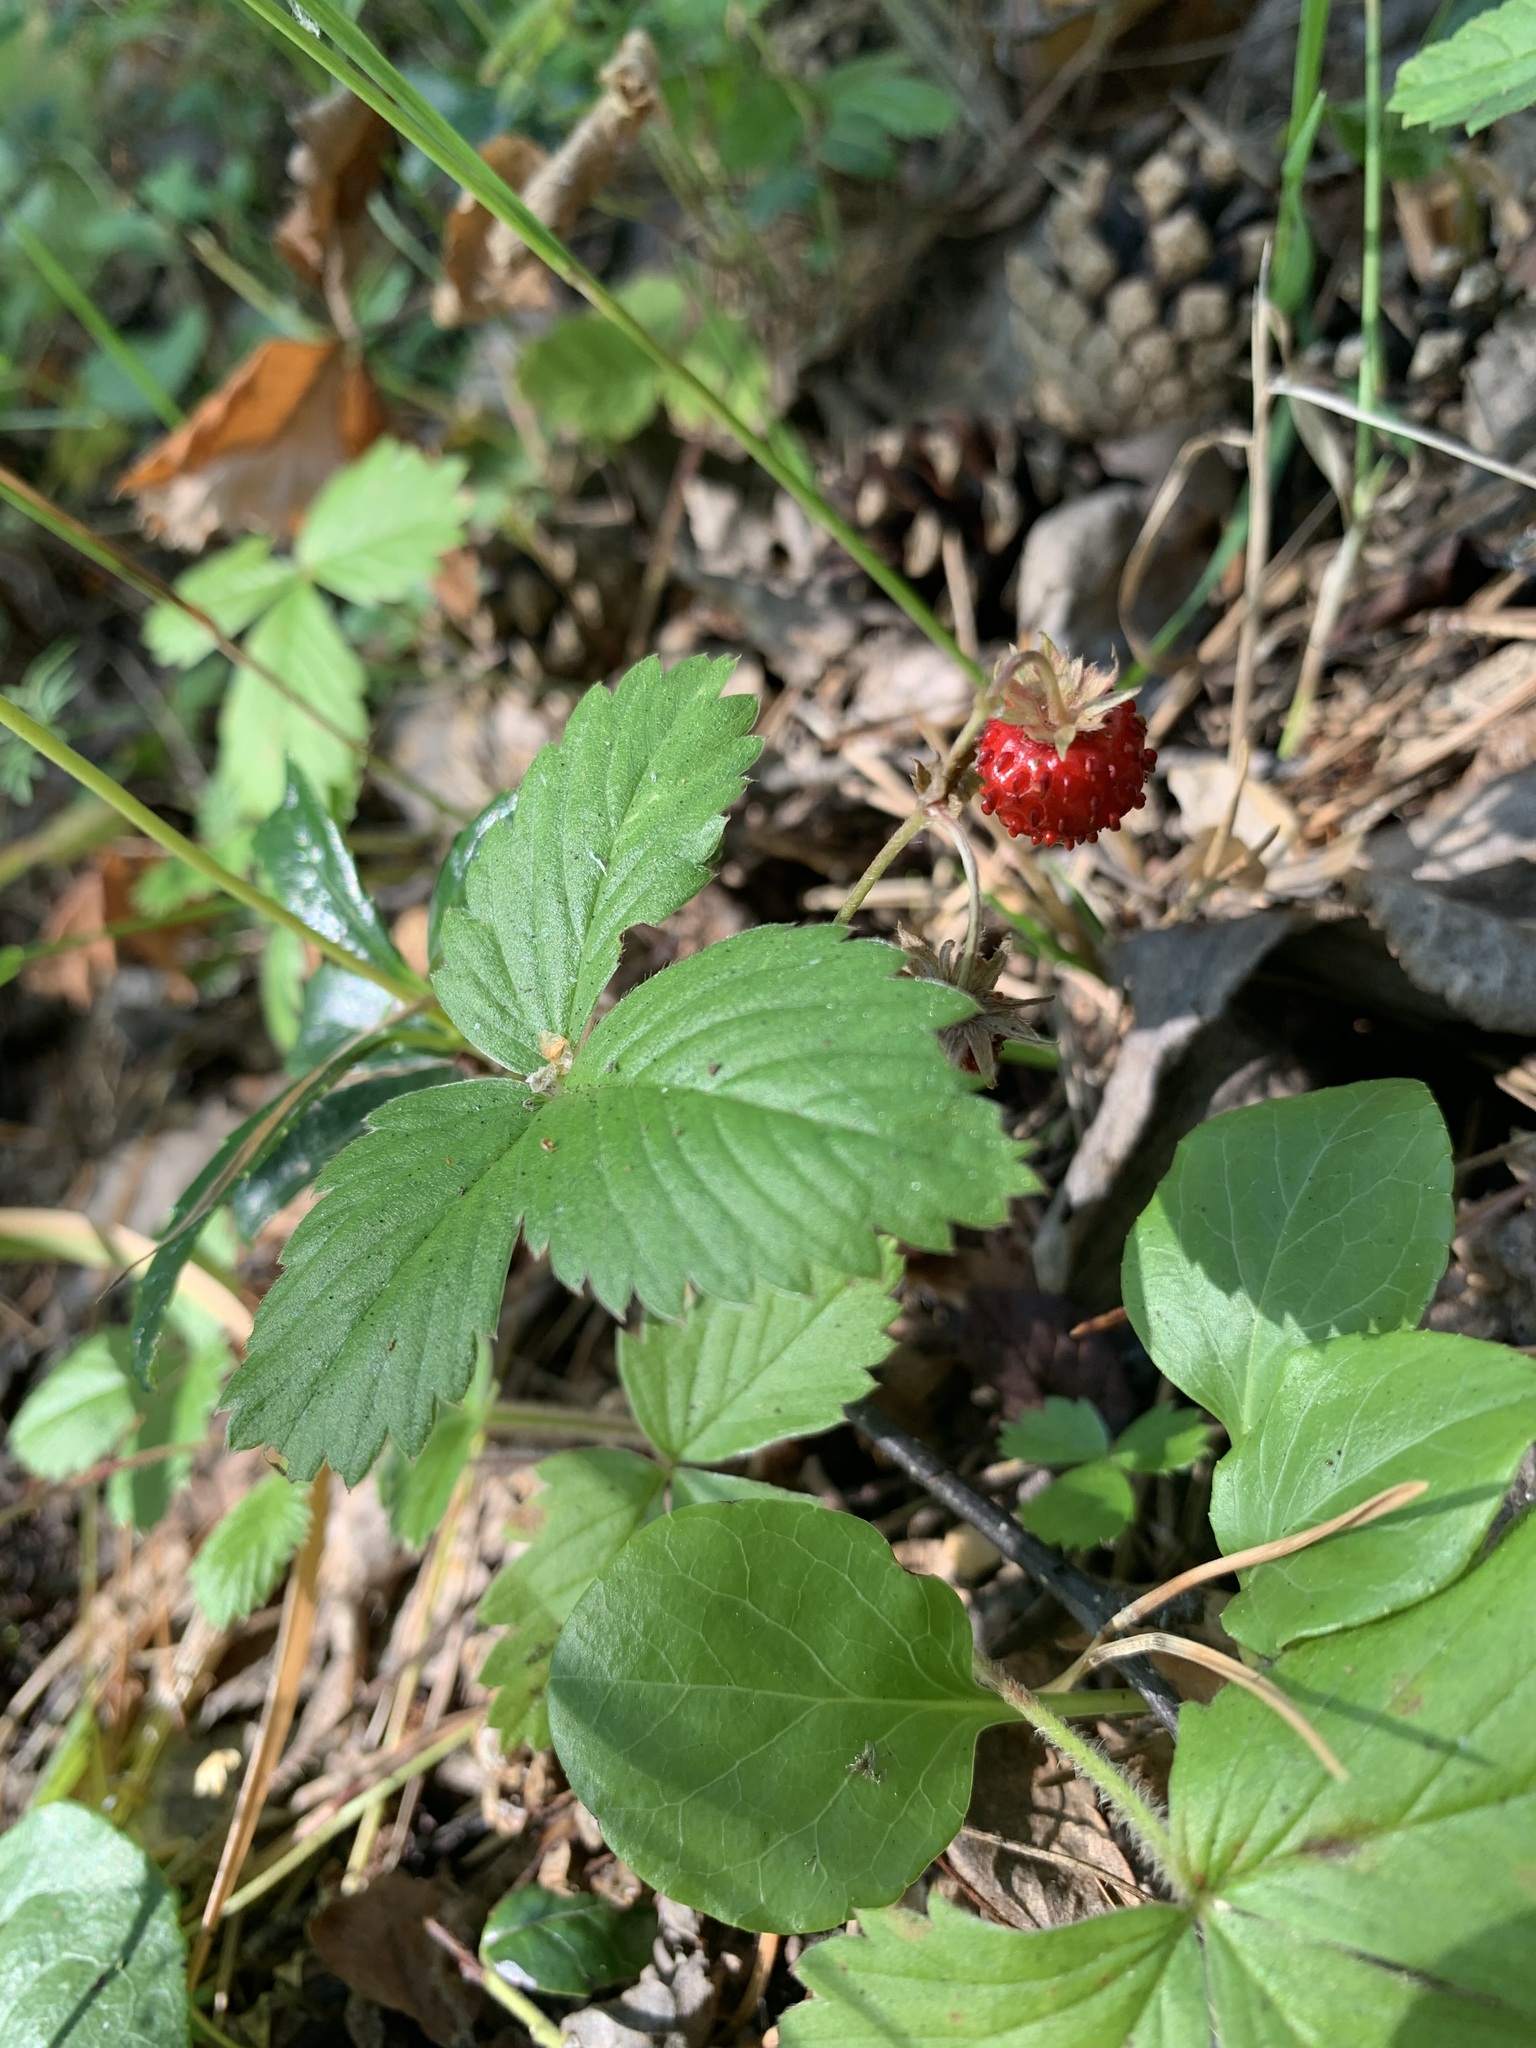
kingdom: Plantae
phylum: Tracheophyta
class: Magnoliopsida
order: Rosales
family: Rosaceae
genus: Fragaria
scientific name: Fragaria vesca
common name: Wild strawberry
